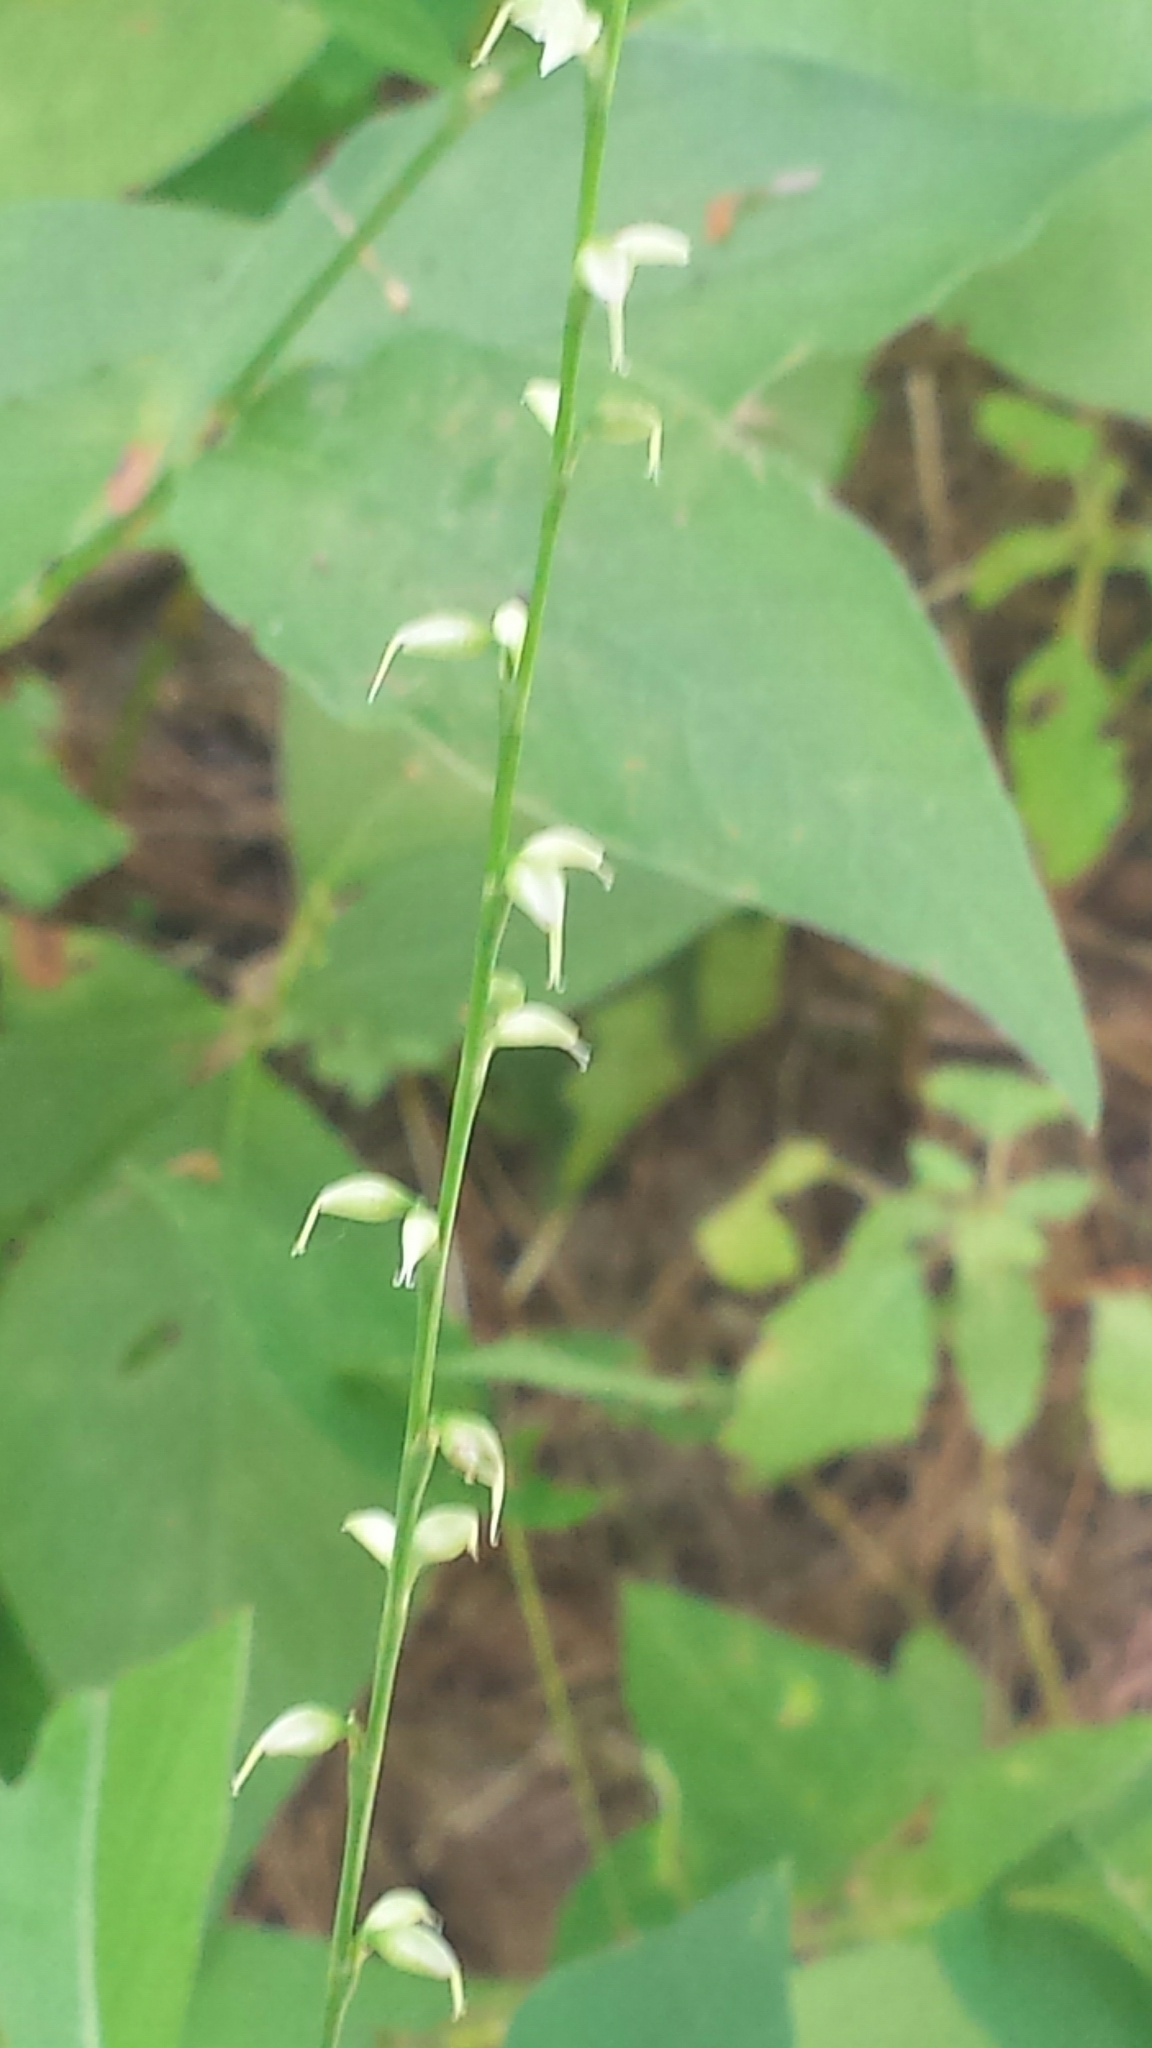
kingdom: Plantae
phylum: Tracheophyta
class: Magnoliopsida
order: Caryophyllales
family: Polygonaceae
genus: Persicaria
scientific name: Persicaria virginiana
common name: Jumpseed
